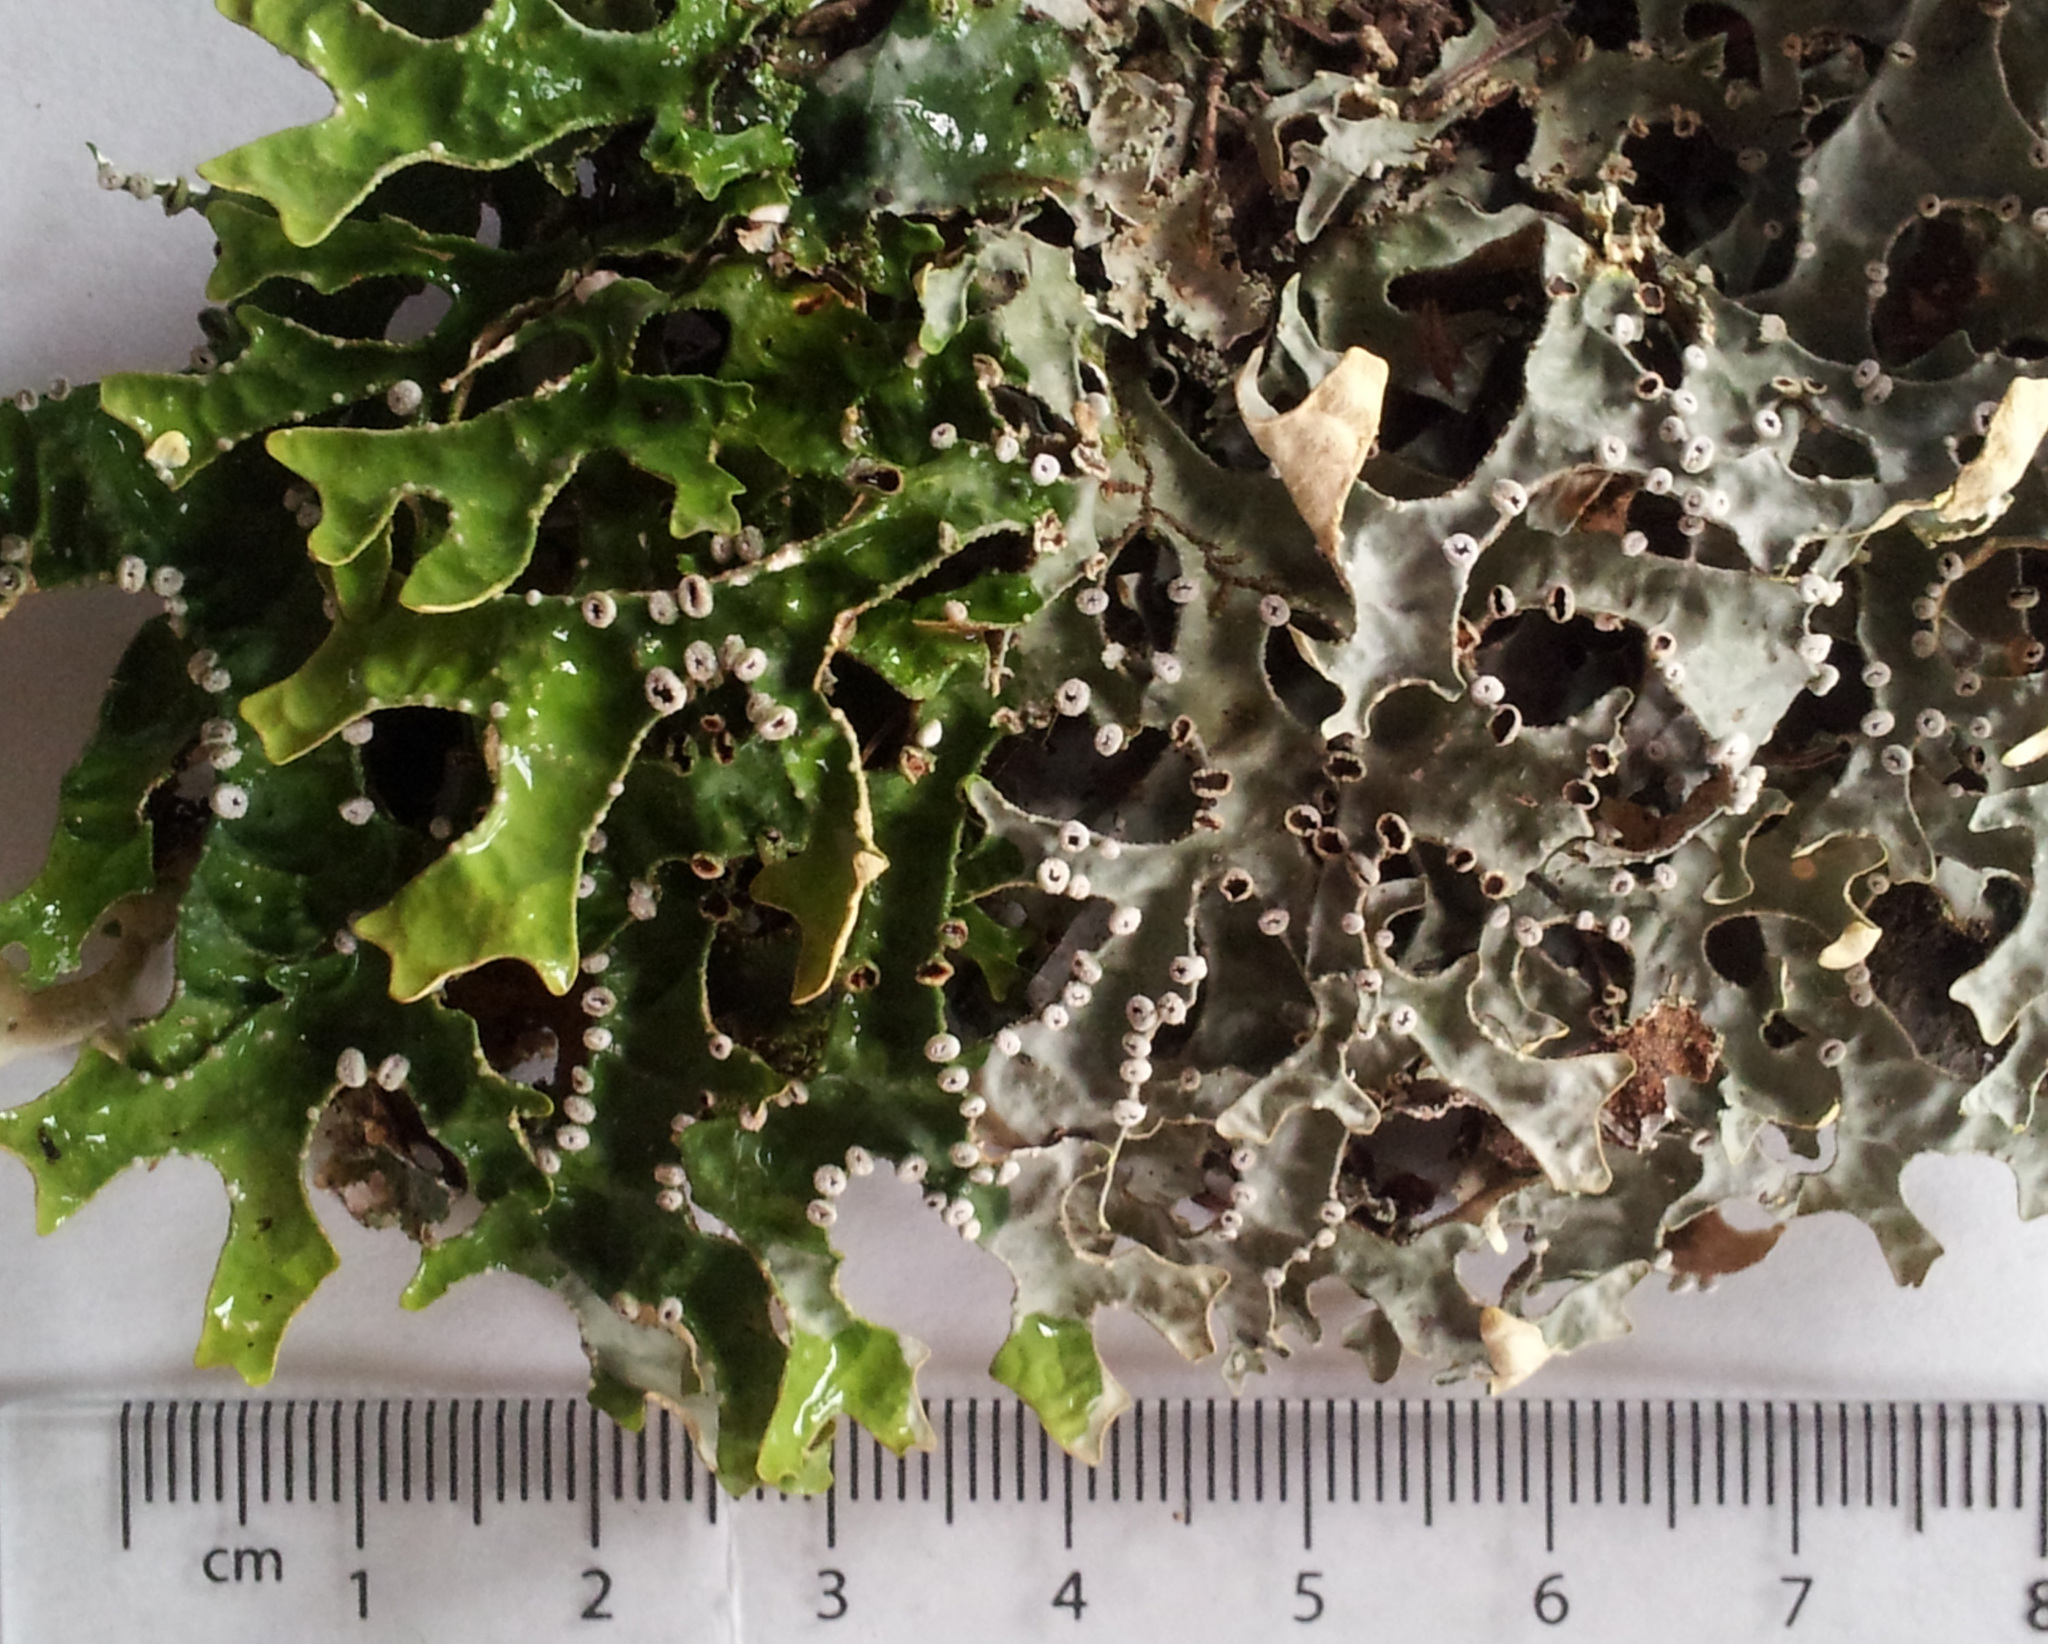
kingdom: Fungi
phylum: Ascomycota
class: Lecanoromycetes
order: Peltigerales
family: Lobariaceae
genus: Pseudocyphellaria
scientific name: Pseudocyphellaria carpoloma
